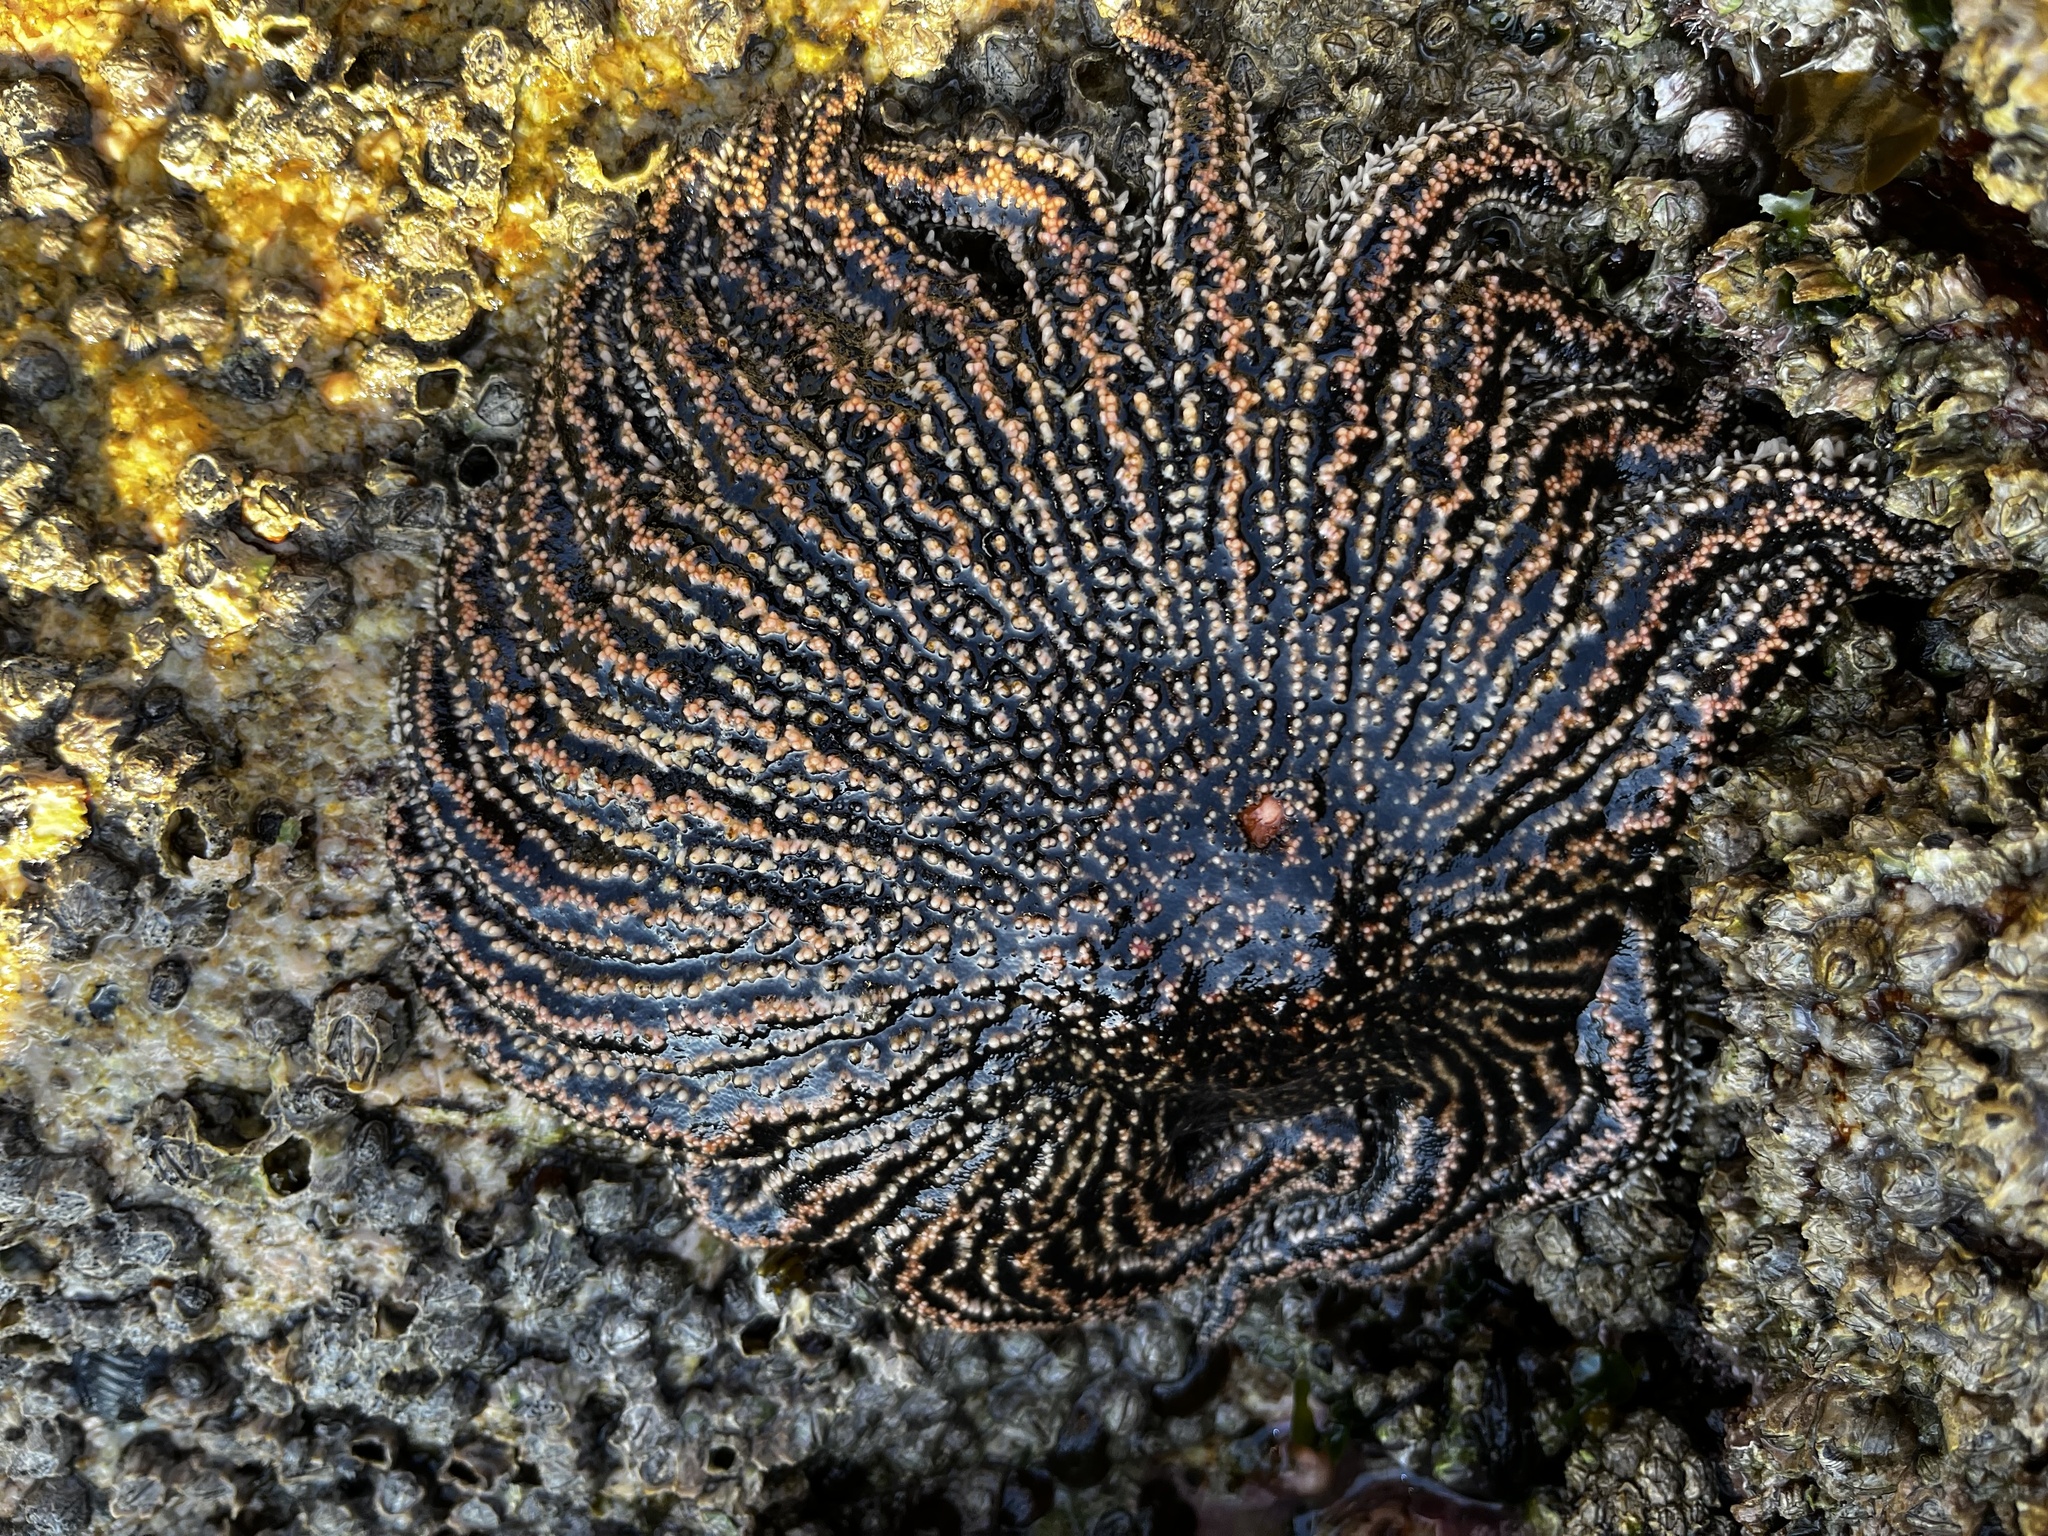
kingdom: Animalia
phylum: Echinodermata
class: Asteroidea
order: Forcipulatida
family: Heliasteridae
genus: Heliaster
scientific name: Heliaster helianthus
